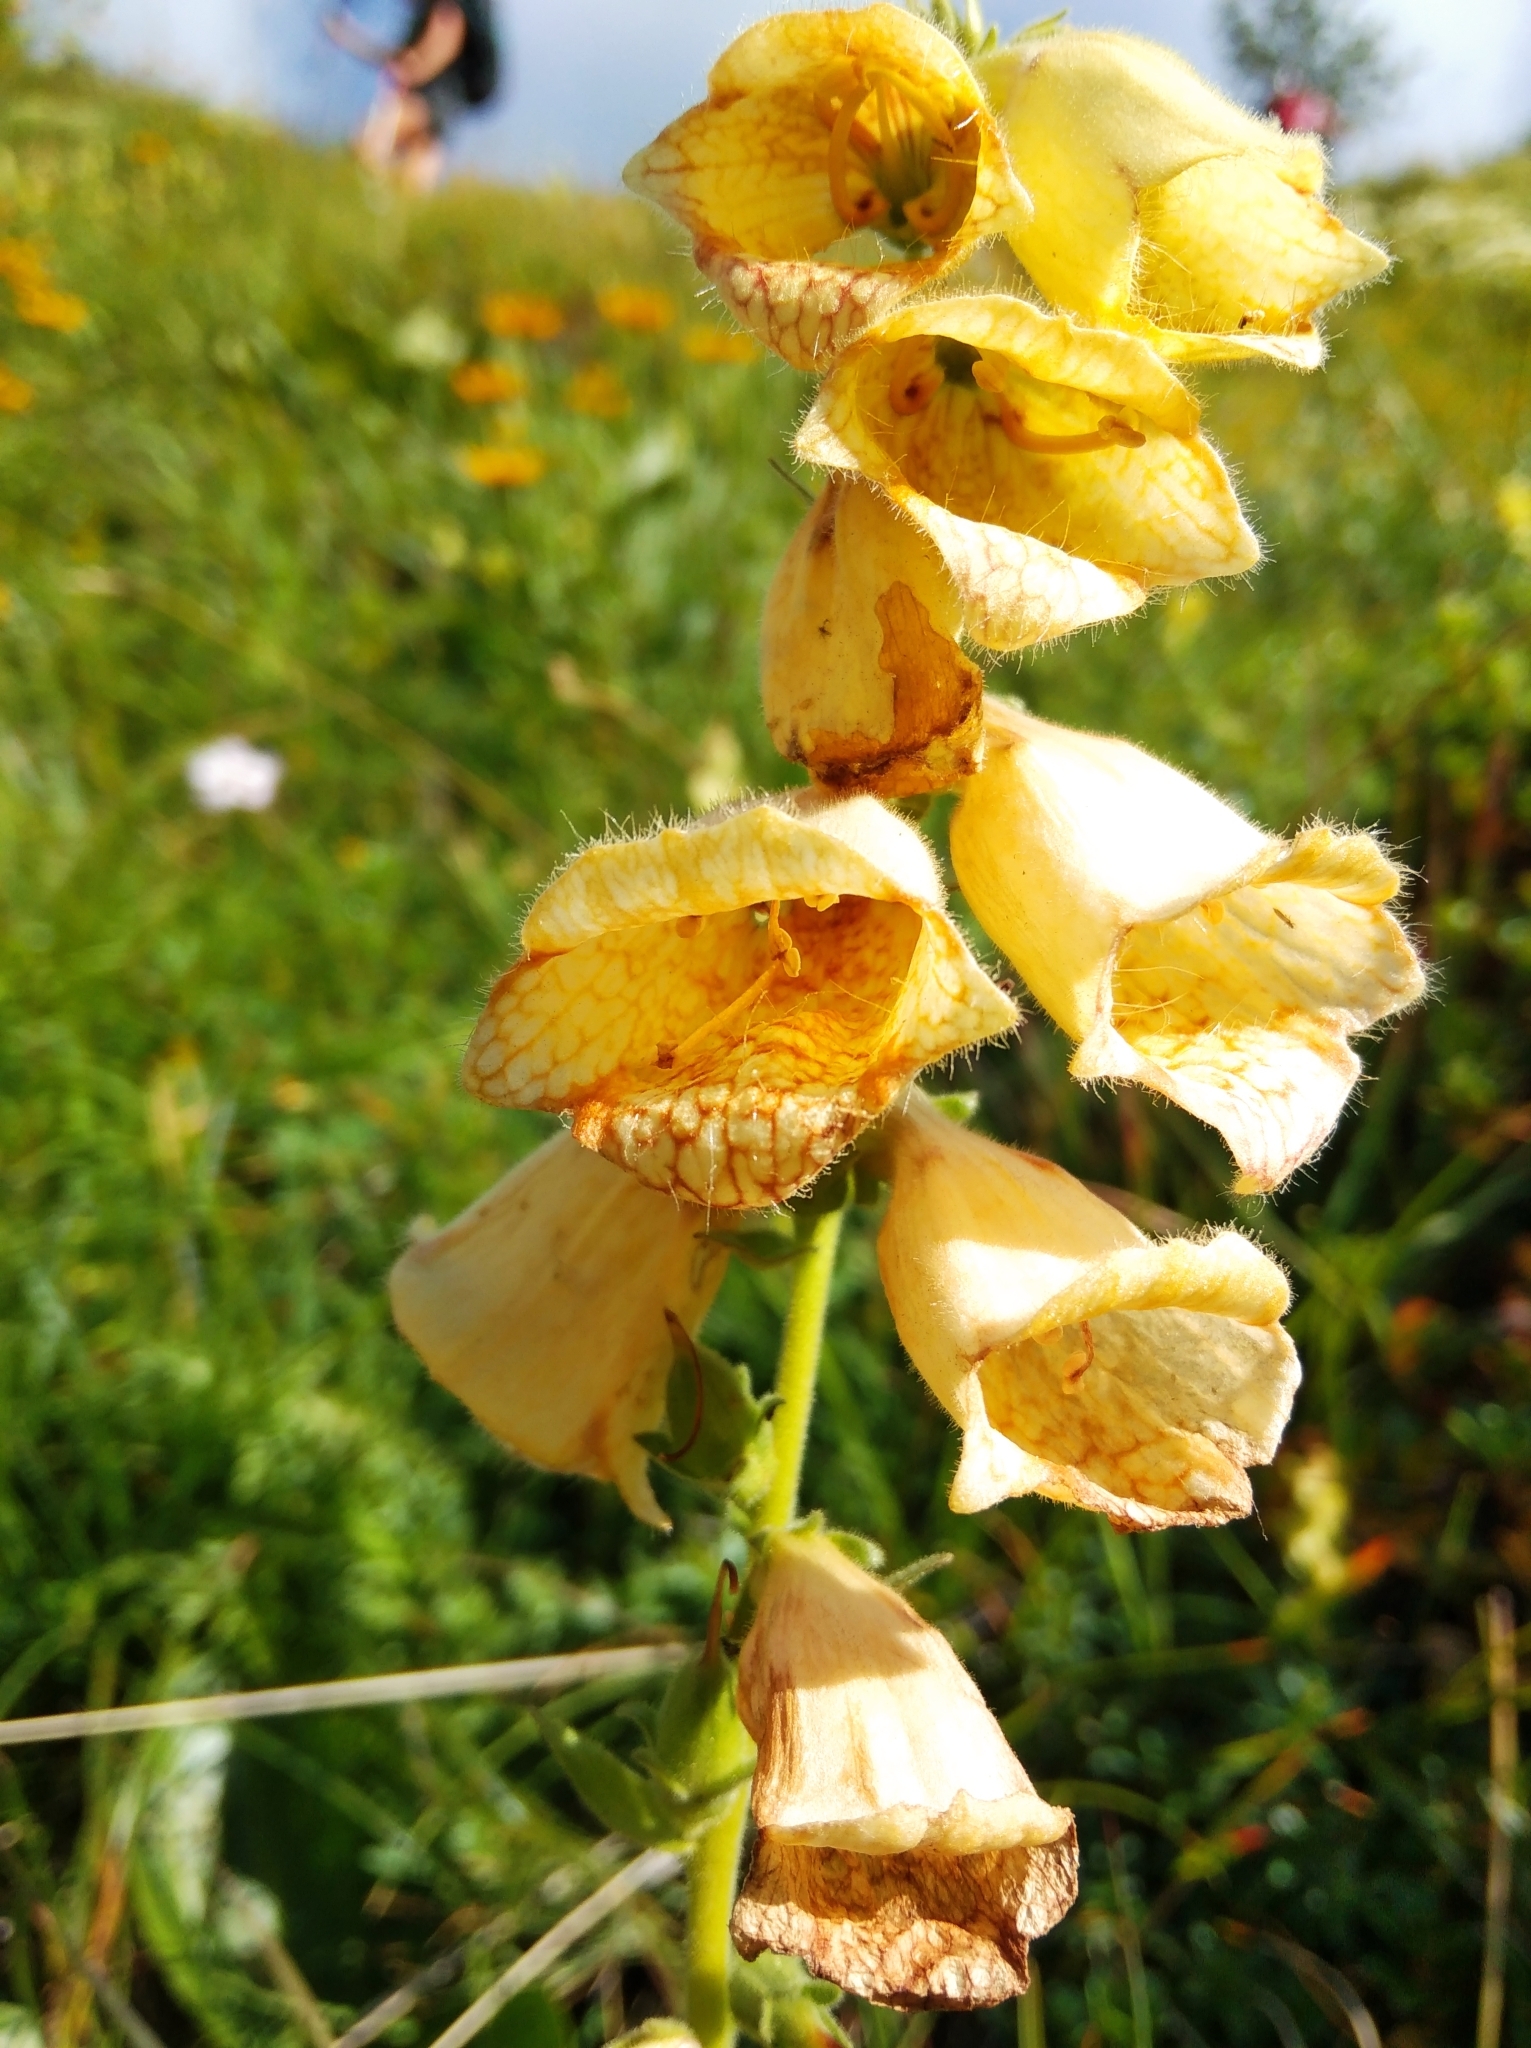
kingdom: Plantae
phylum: Tracheophyta
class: Magnoliopsida
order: Lamiales
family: Plantaginaceae
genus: Digitalis
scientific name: Digitalis grandiflora
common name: Yellow foxglove
